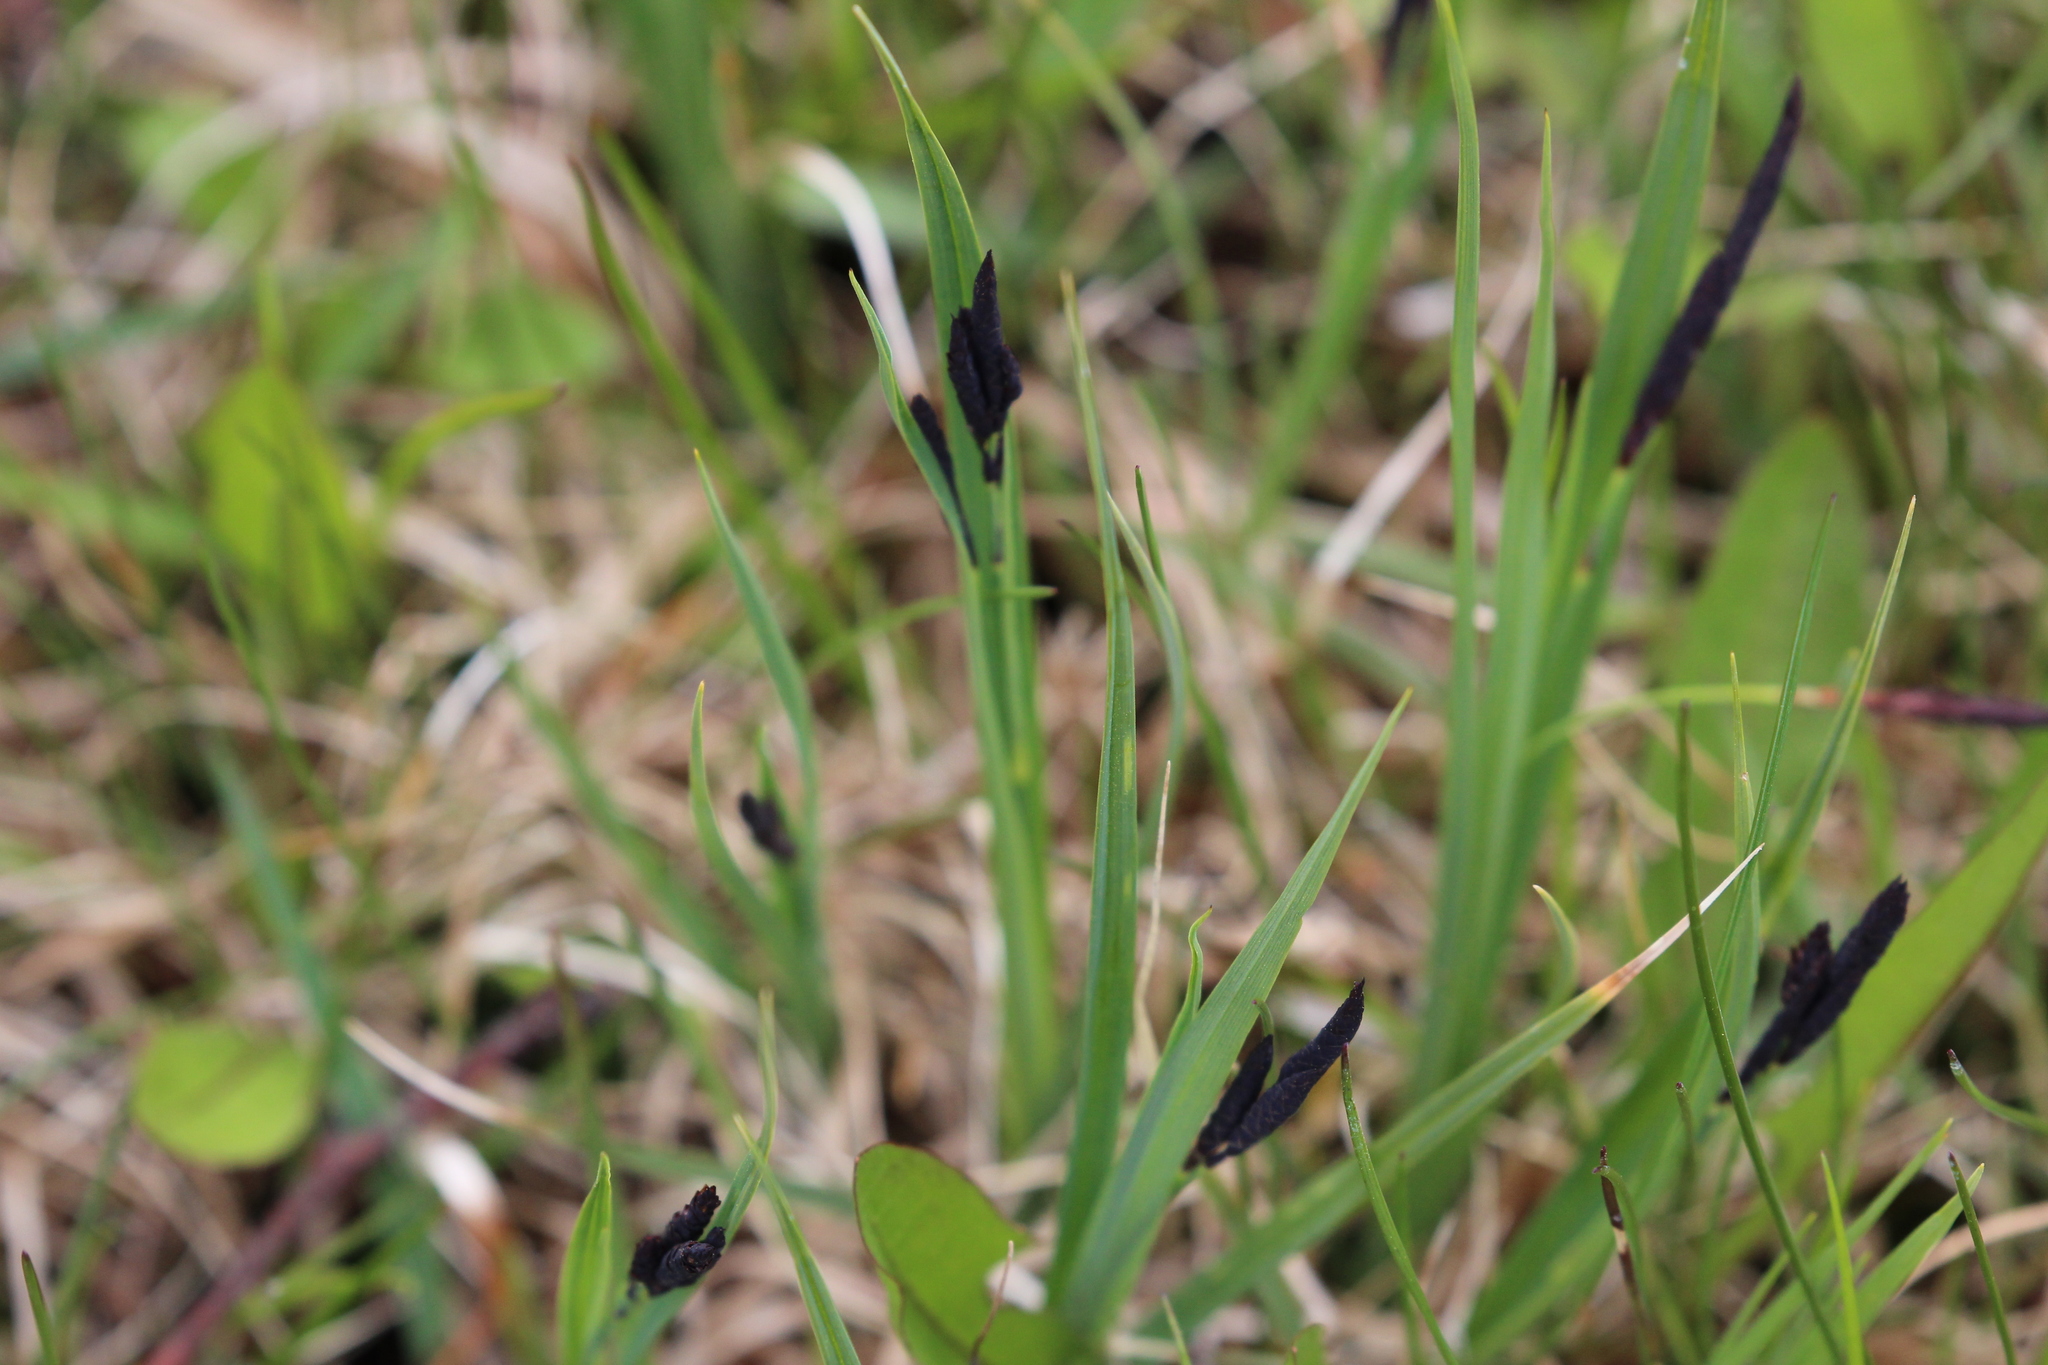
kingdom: Plantae
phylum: Tracheophyta
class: Liliopsida
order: Poales
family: Cyperaceae
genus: Carex
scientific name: Carex atratiformis
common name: Black sedge
